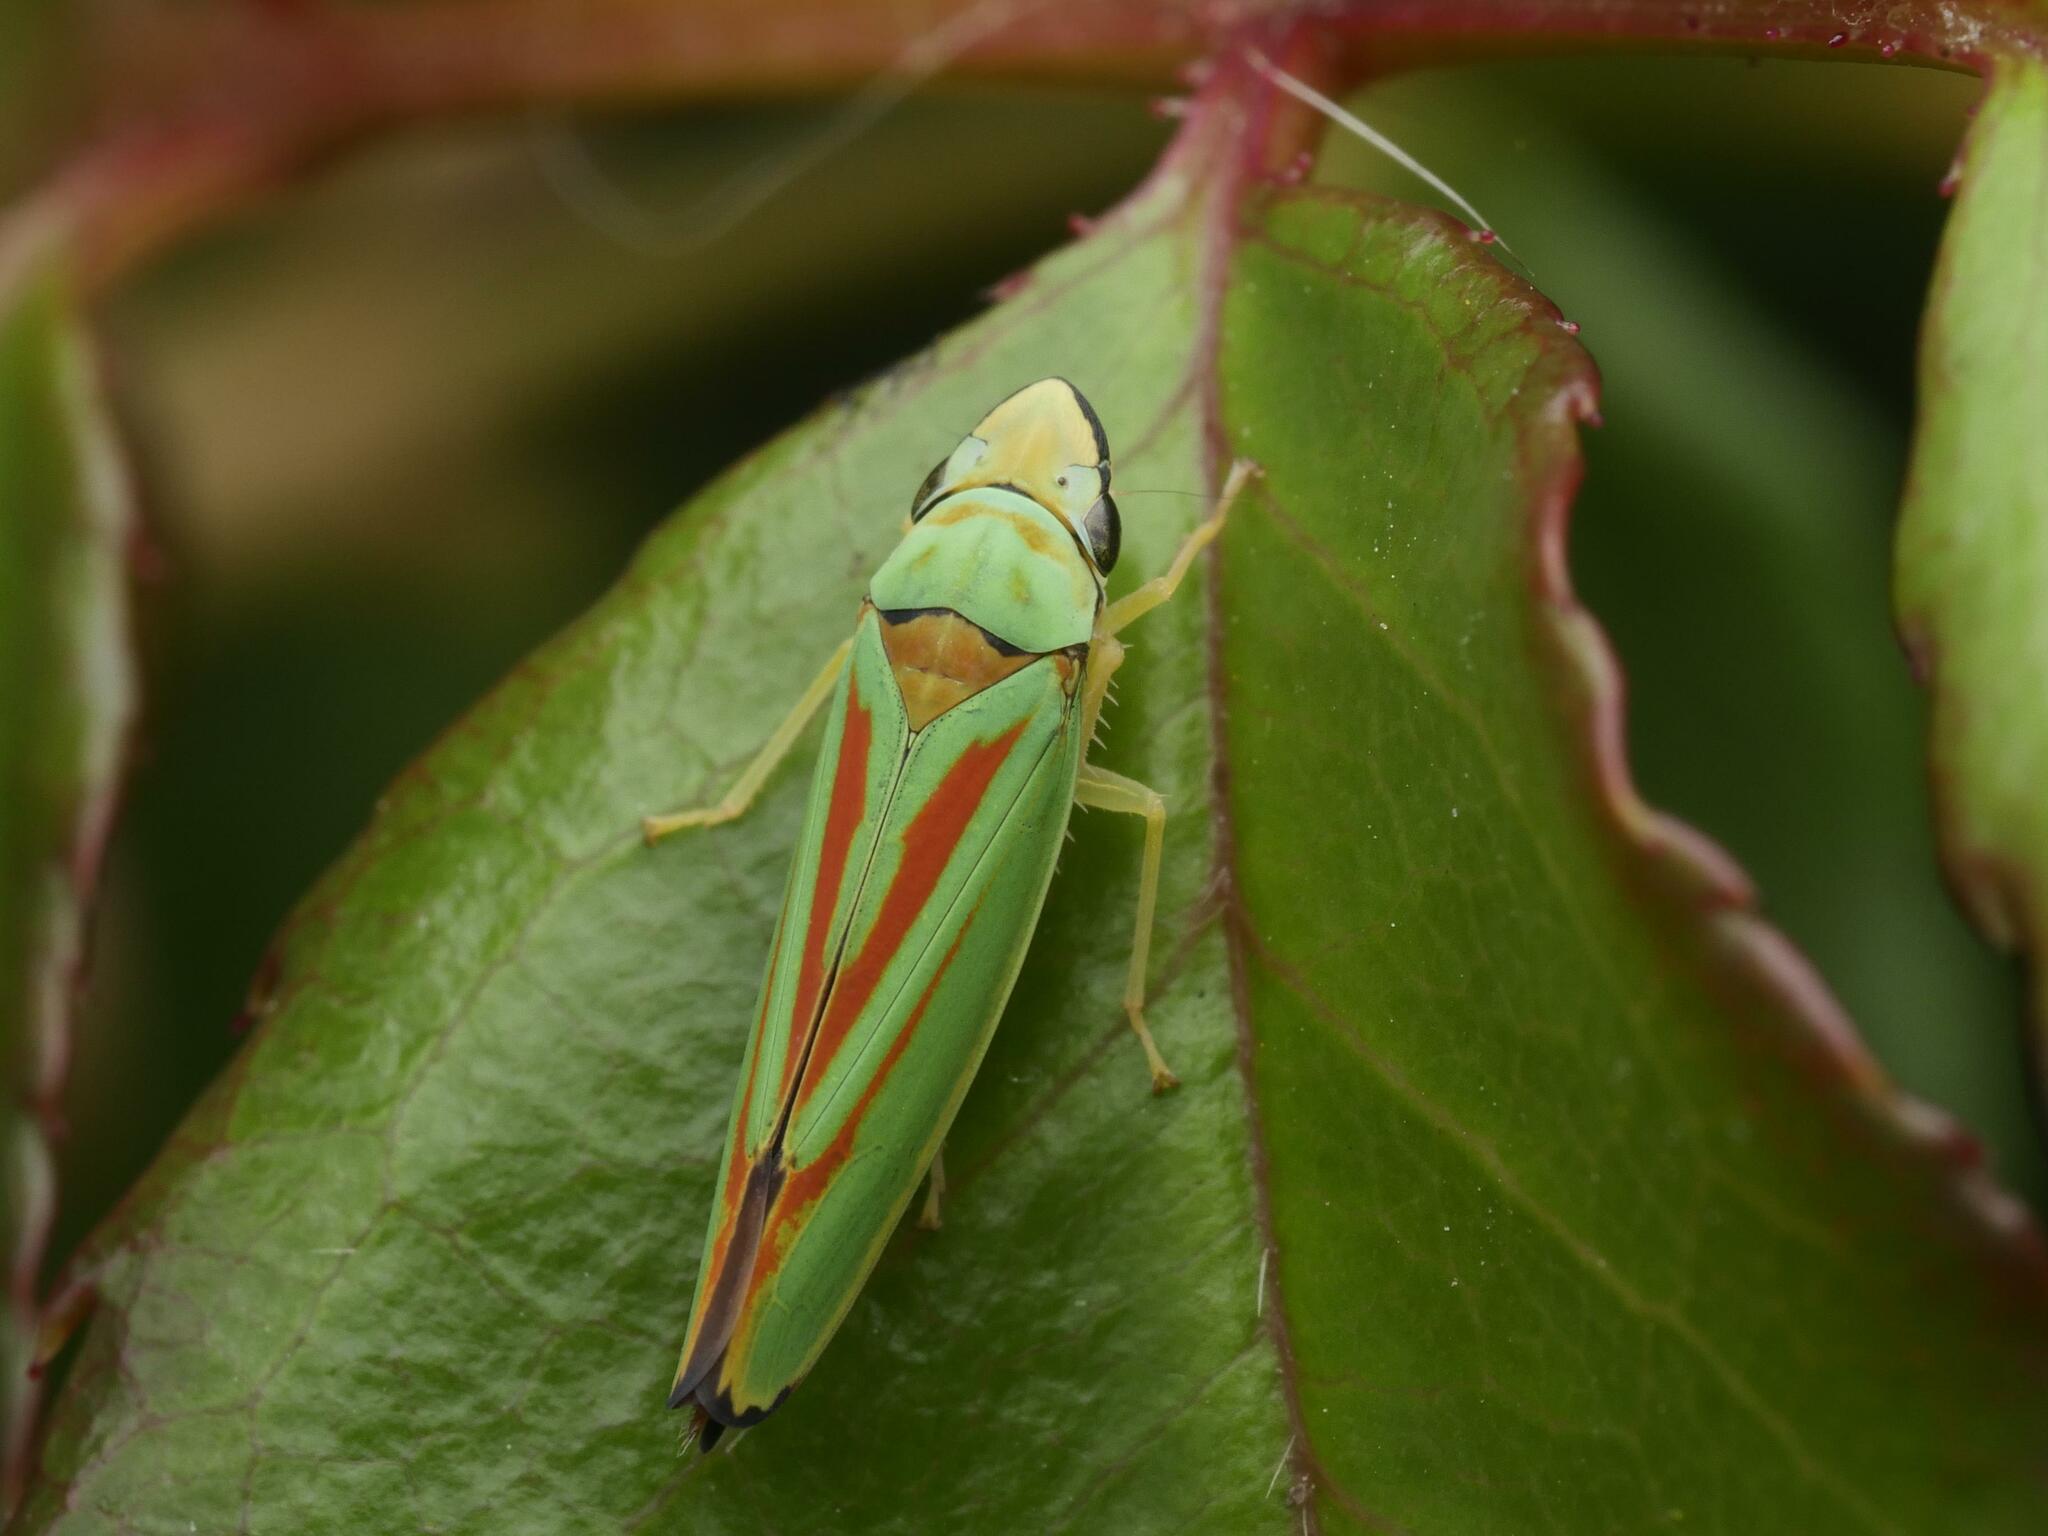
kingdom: Animalia
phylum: Arthropoda
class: Insecta
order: Hemiptera
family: Cicadellidae
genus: Graphocephala
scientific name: Graphocephala fennahi
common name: Rhododendron leafhopper
